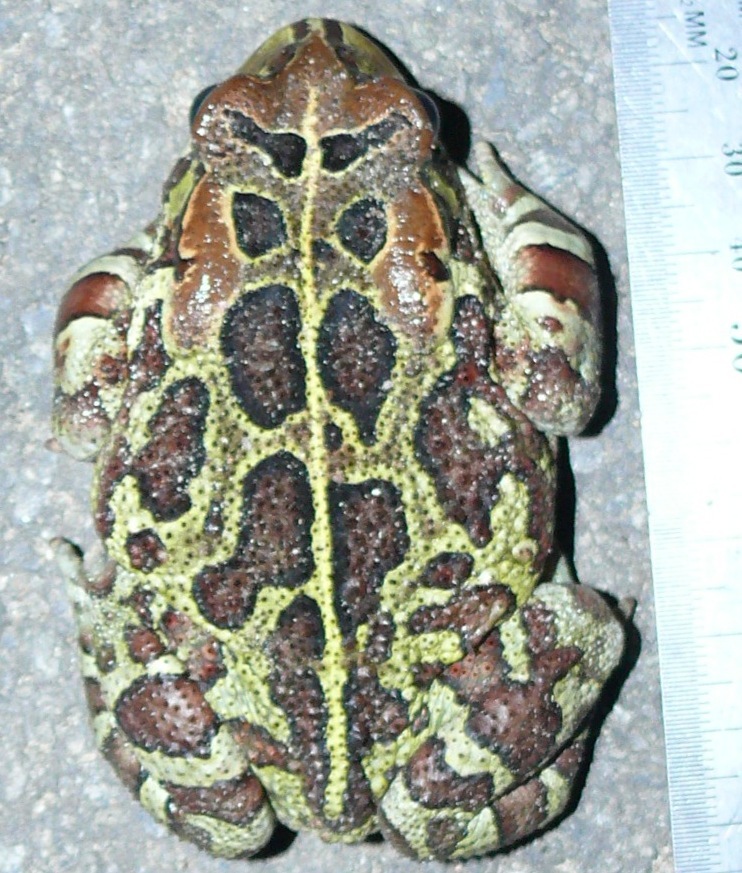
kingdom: Animalia
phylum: Chordata
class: Amphibia
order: Anura
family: Bufonidae
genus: Sclerophrys
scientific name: Sclerophrys pantherina
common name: Panther toad
